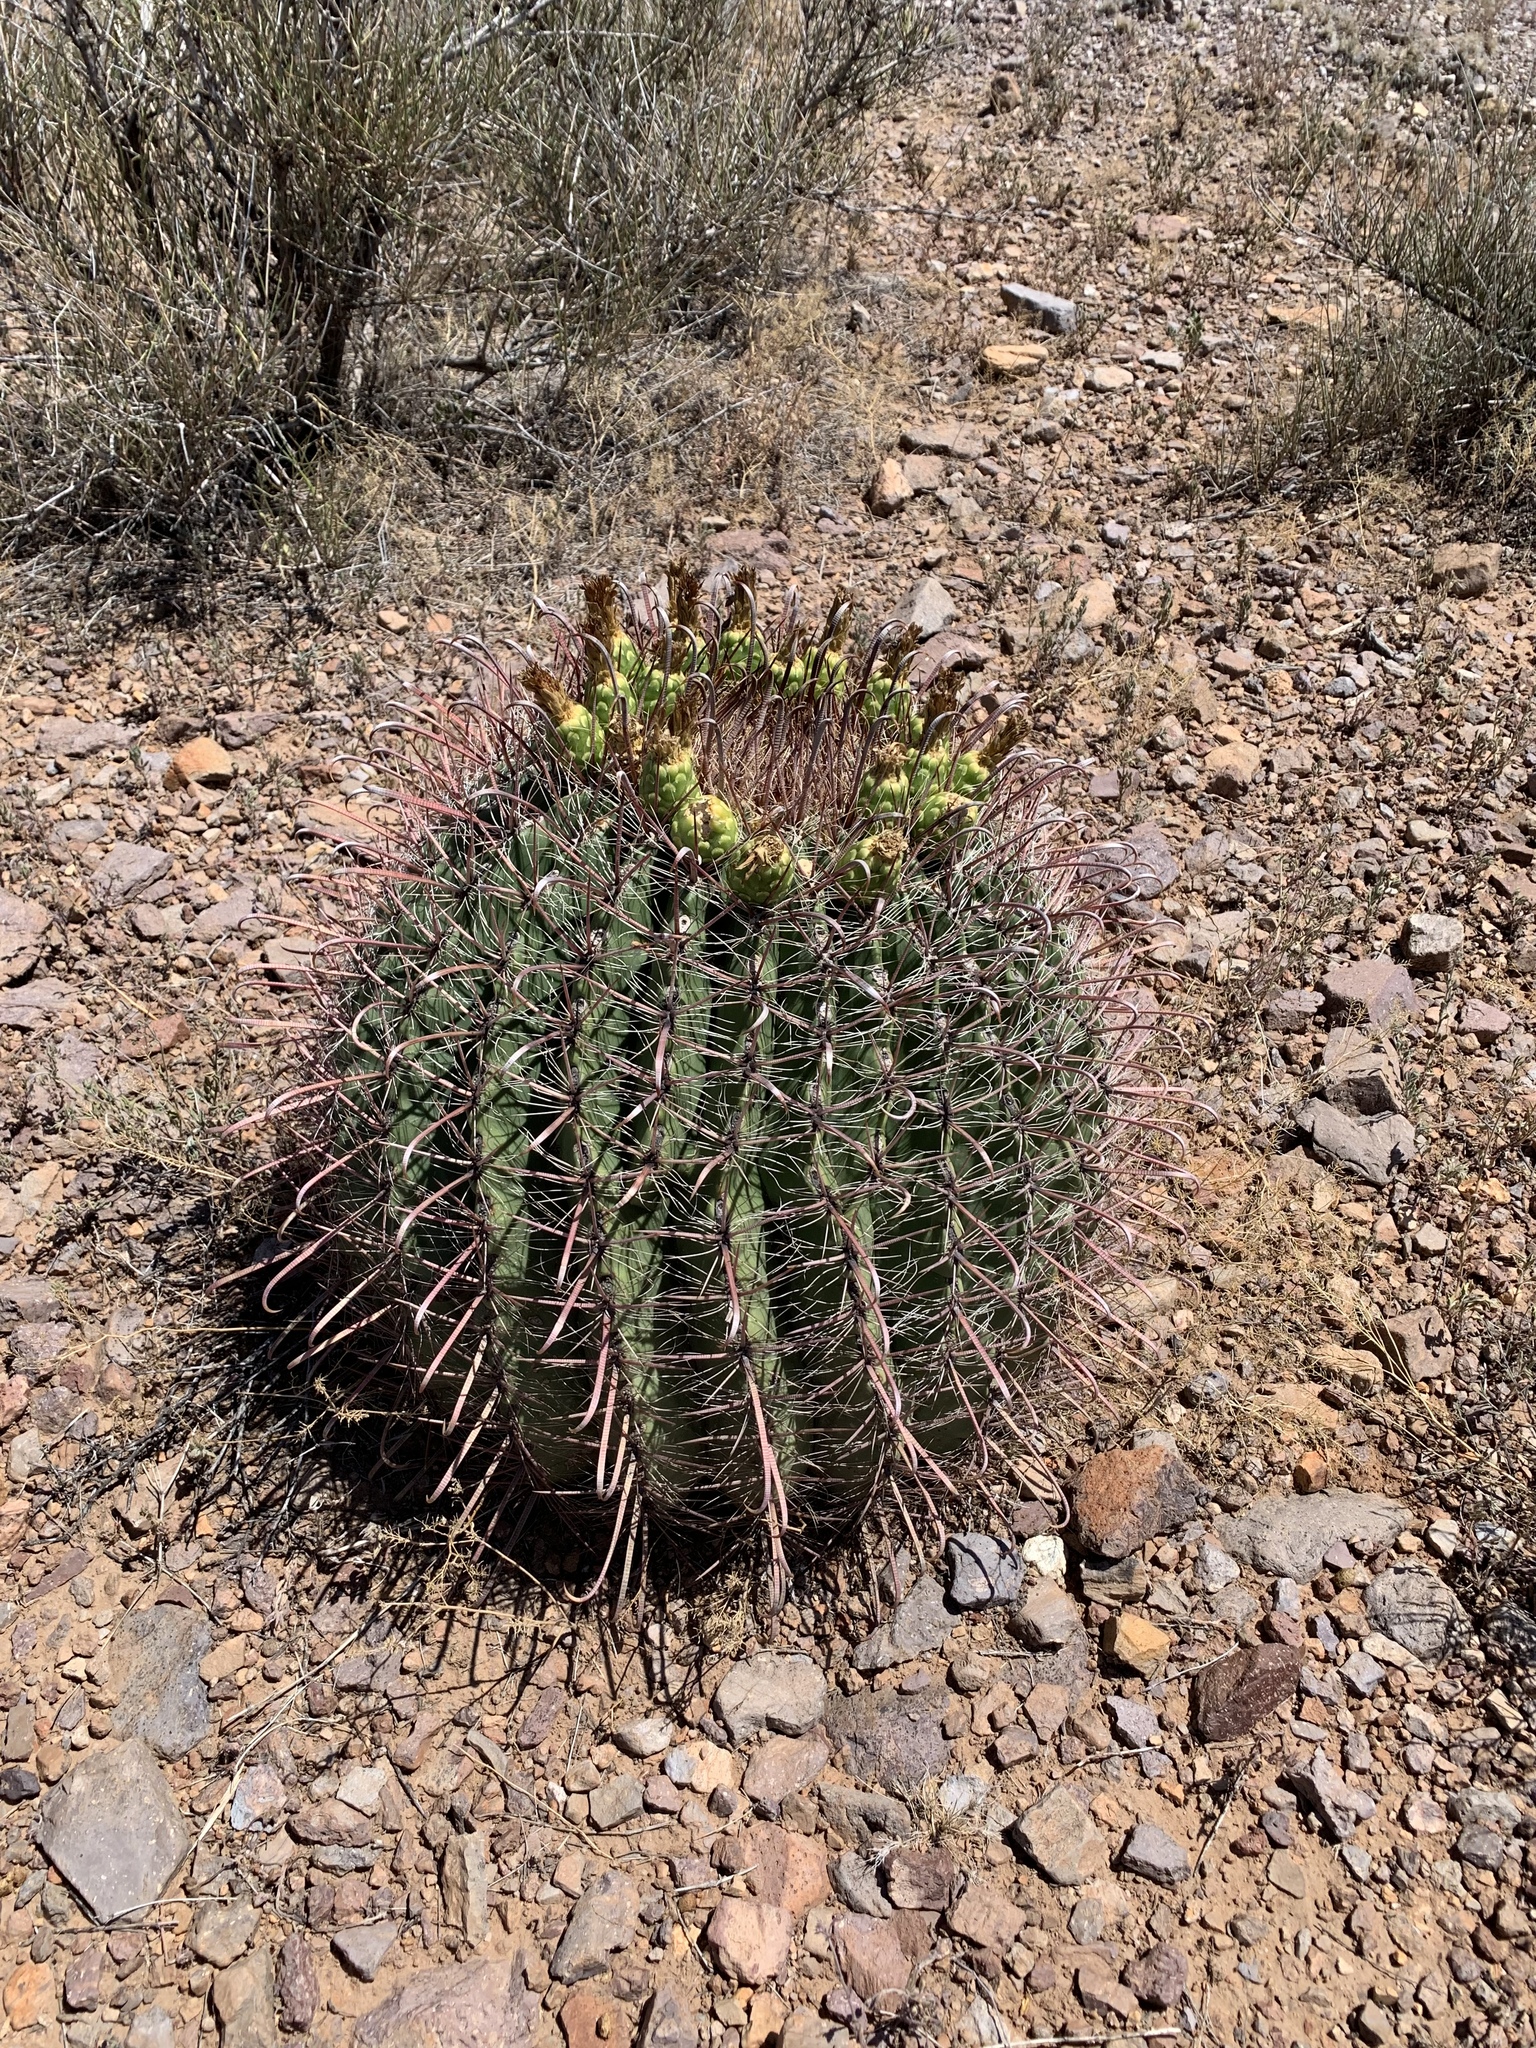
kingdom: Plantae
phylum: Tracheophyta
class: Magnoliopsida
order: Caryophyllales
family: Cactaceae
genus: Ferocactus
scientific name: Ferocactus wislizeni
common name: Candy barrel cactus
